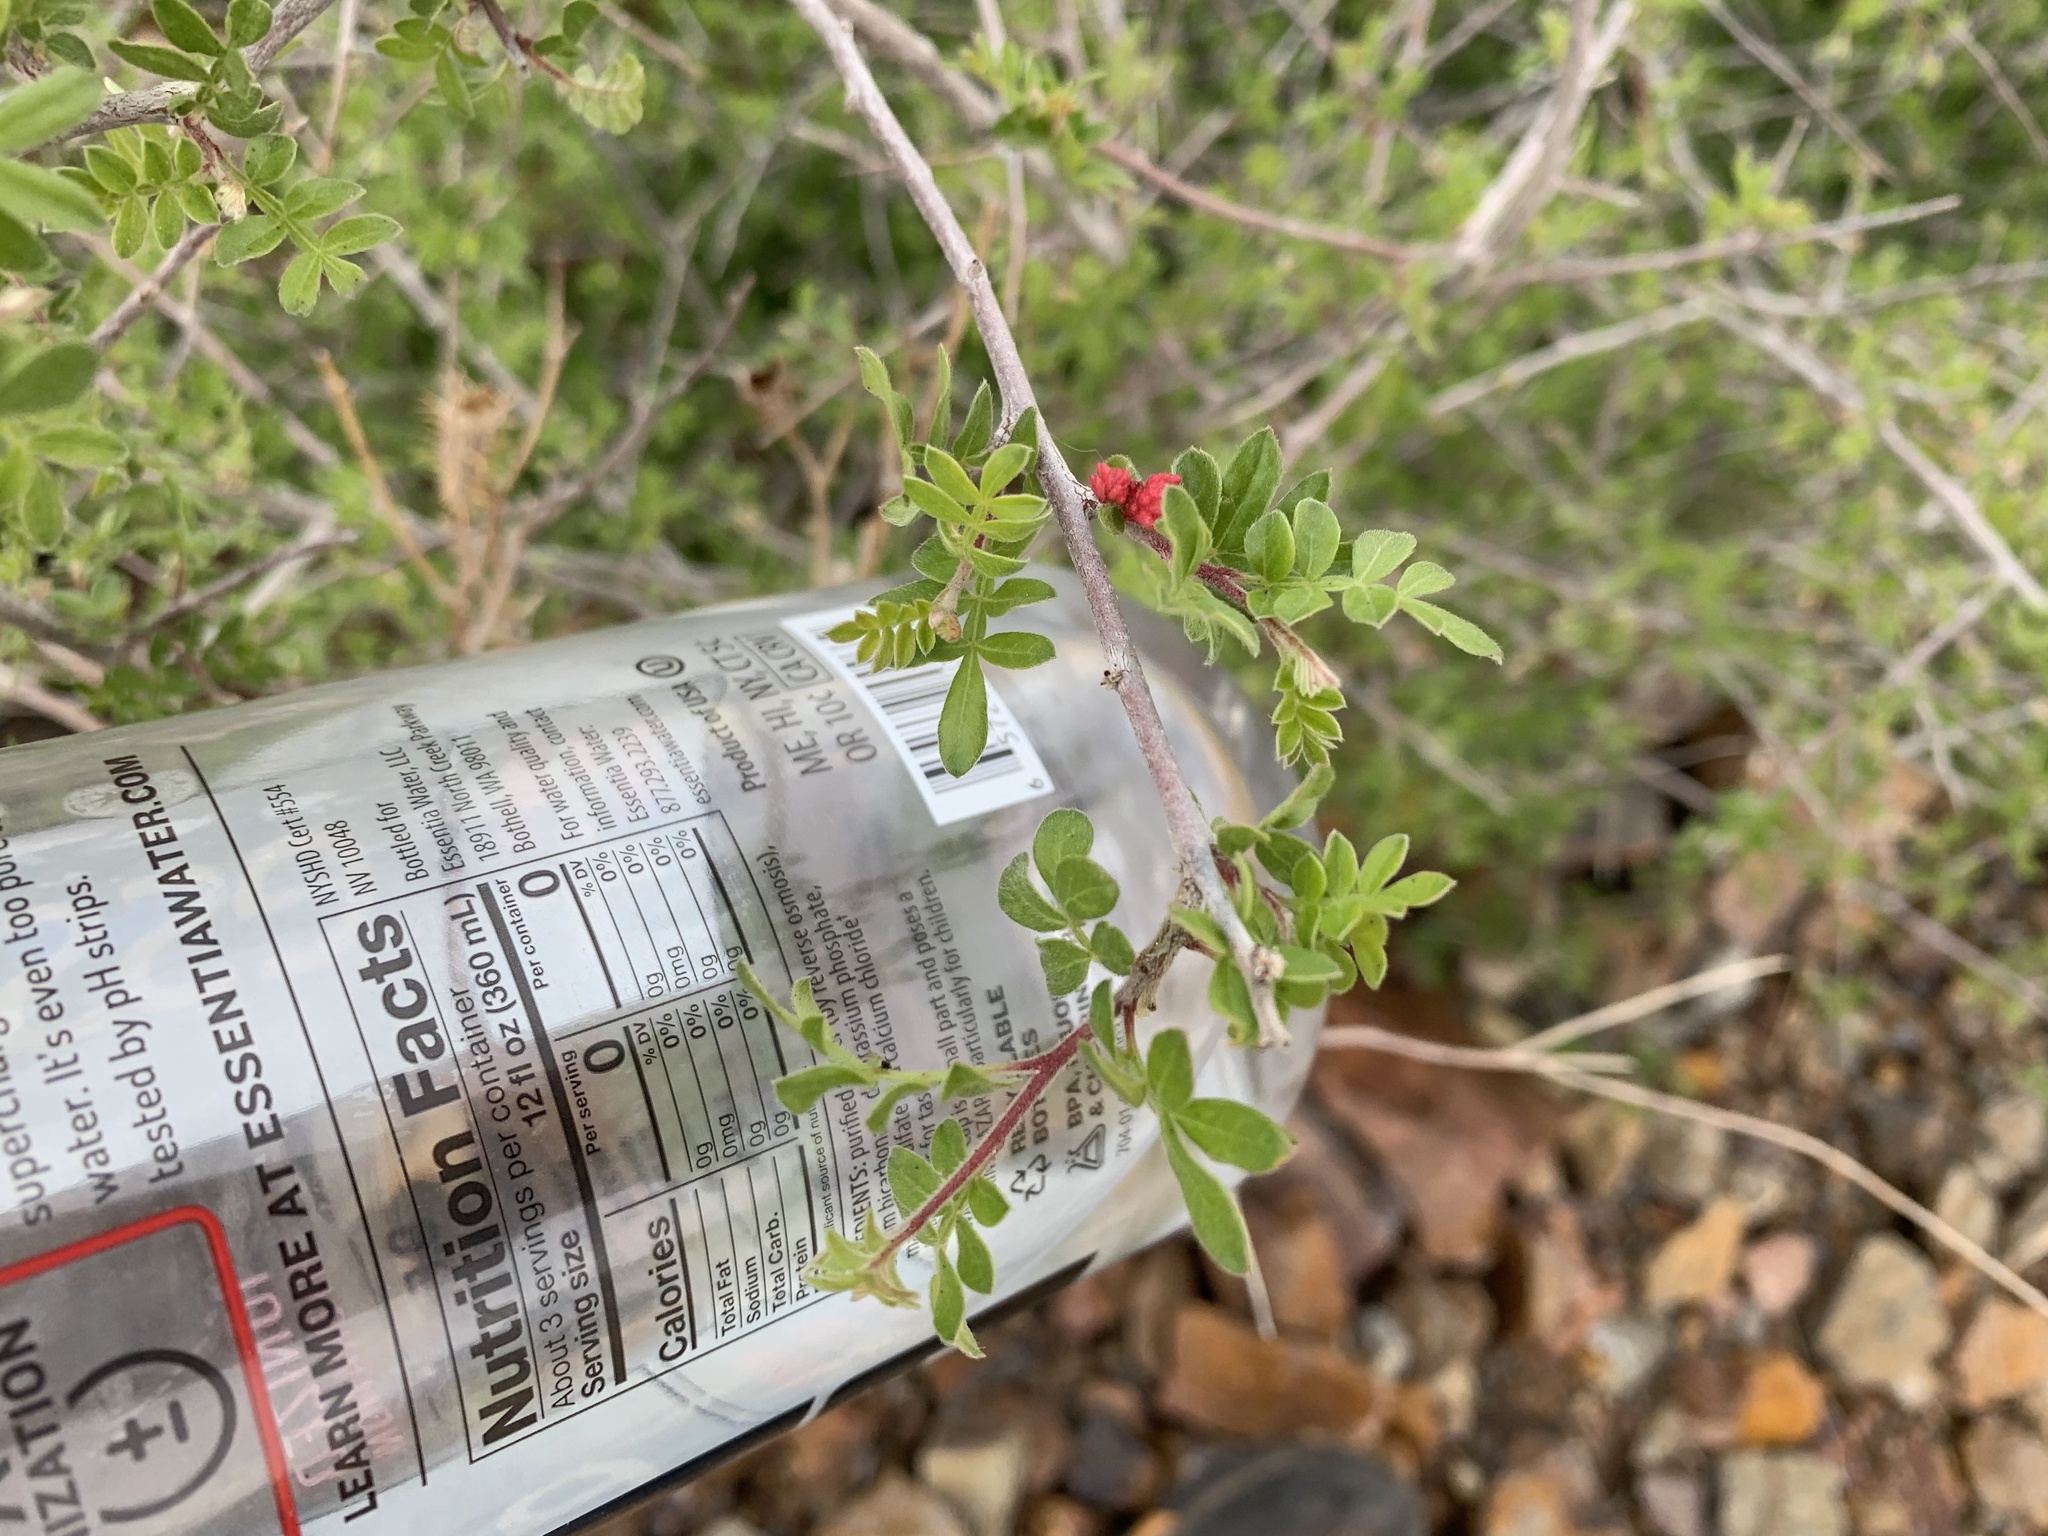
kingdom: Plantae
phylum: Tracheophyta
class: Magnoliopsida
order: Sapindales
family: Anacardiaceae
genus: Rhus
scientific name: Rhus microphylla
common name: Desert sumac
